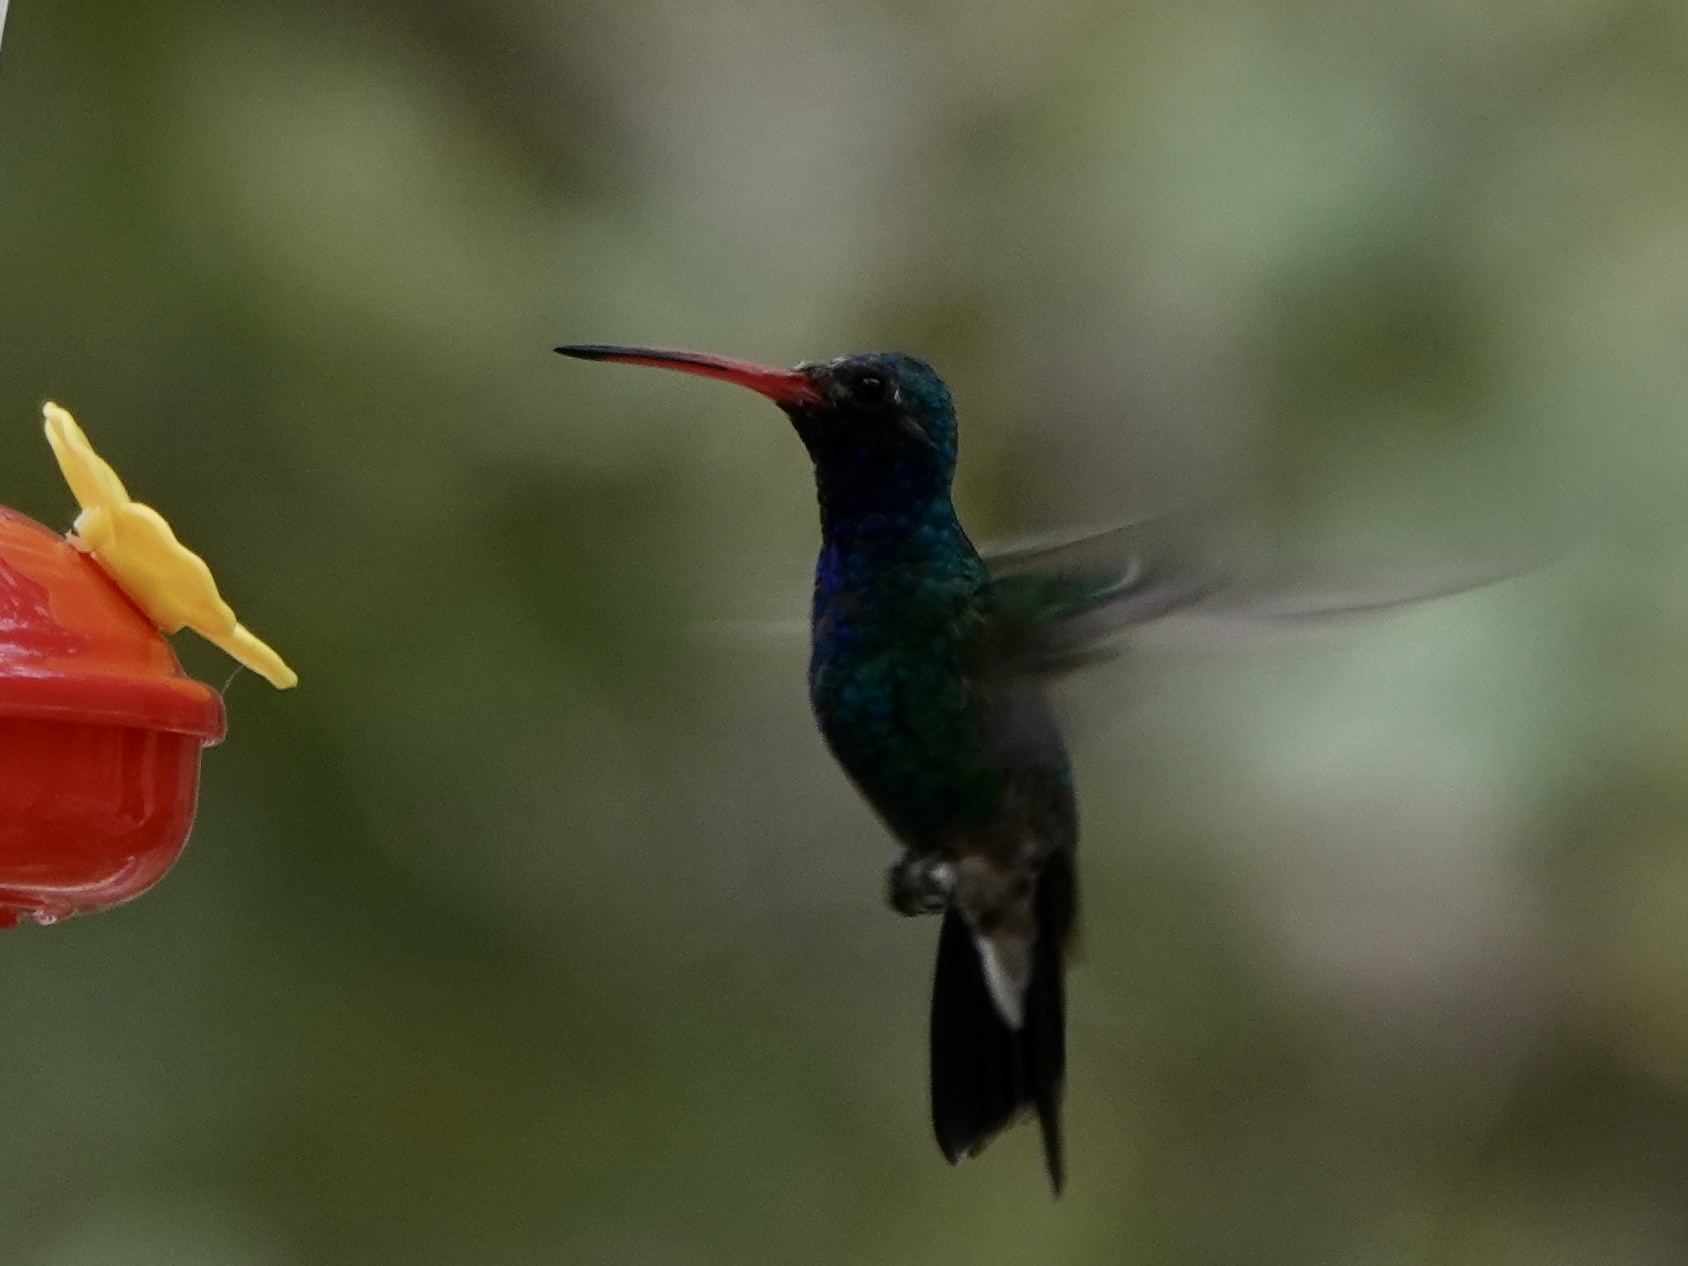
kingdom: Animalia
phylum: Chordata
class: Aves
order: Apodiformes
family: Trochilidae
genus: Cynanthus
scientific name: Cynanthus latirostris
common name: Broad-billed hummingbird
